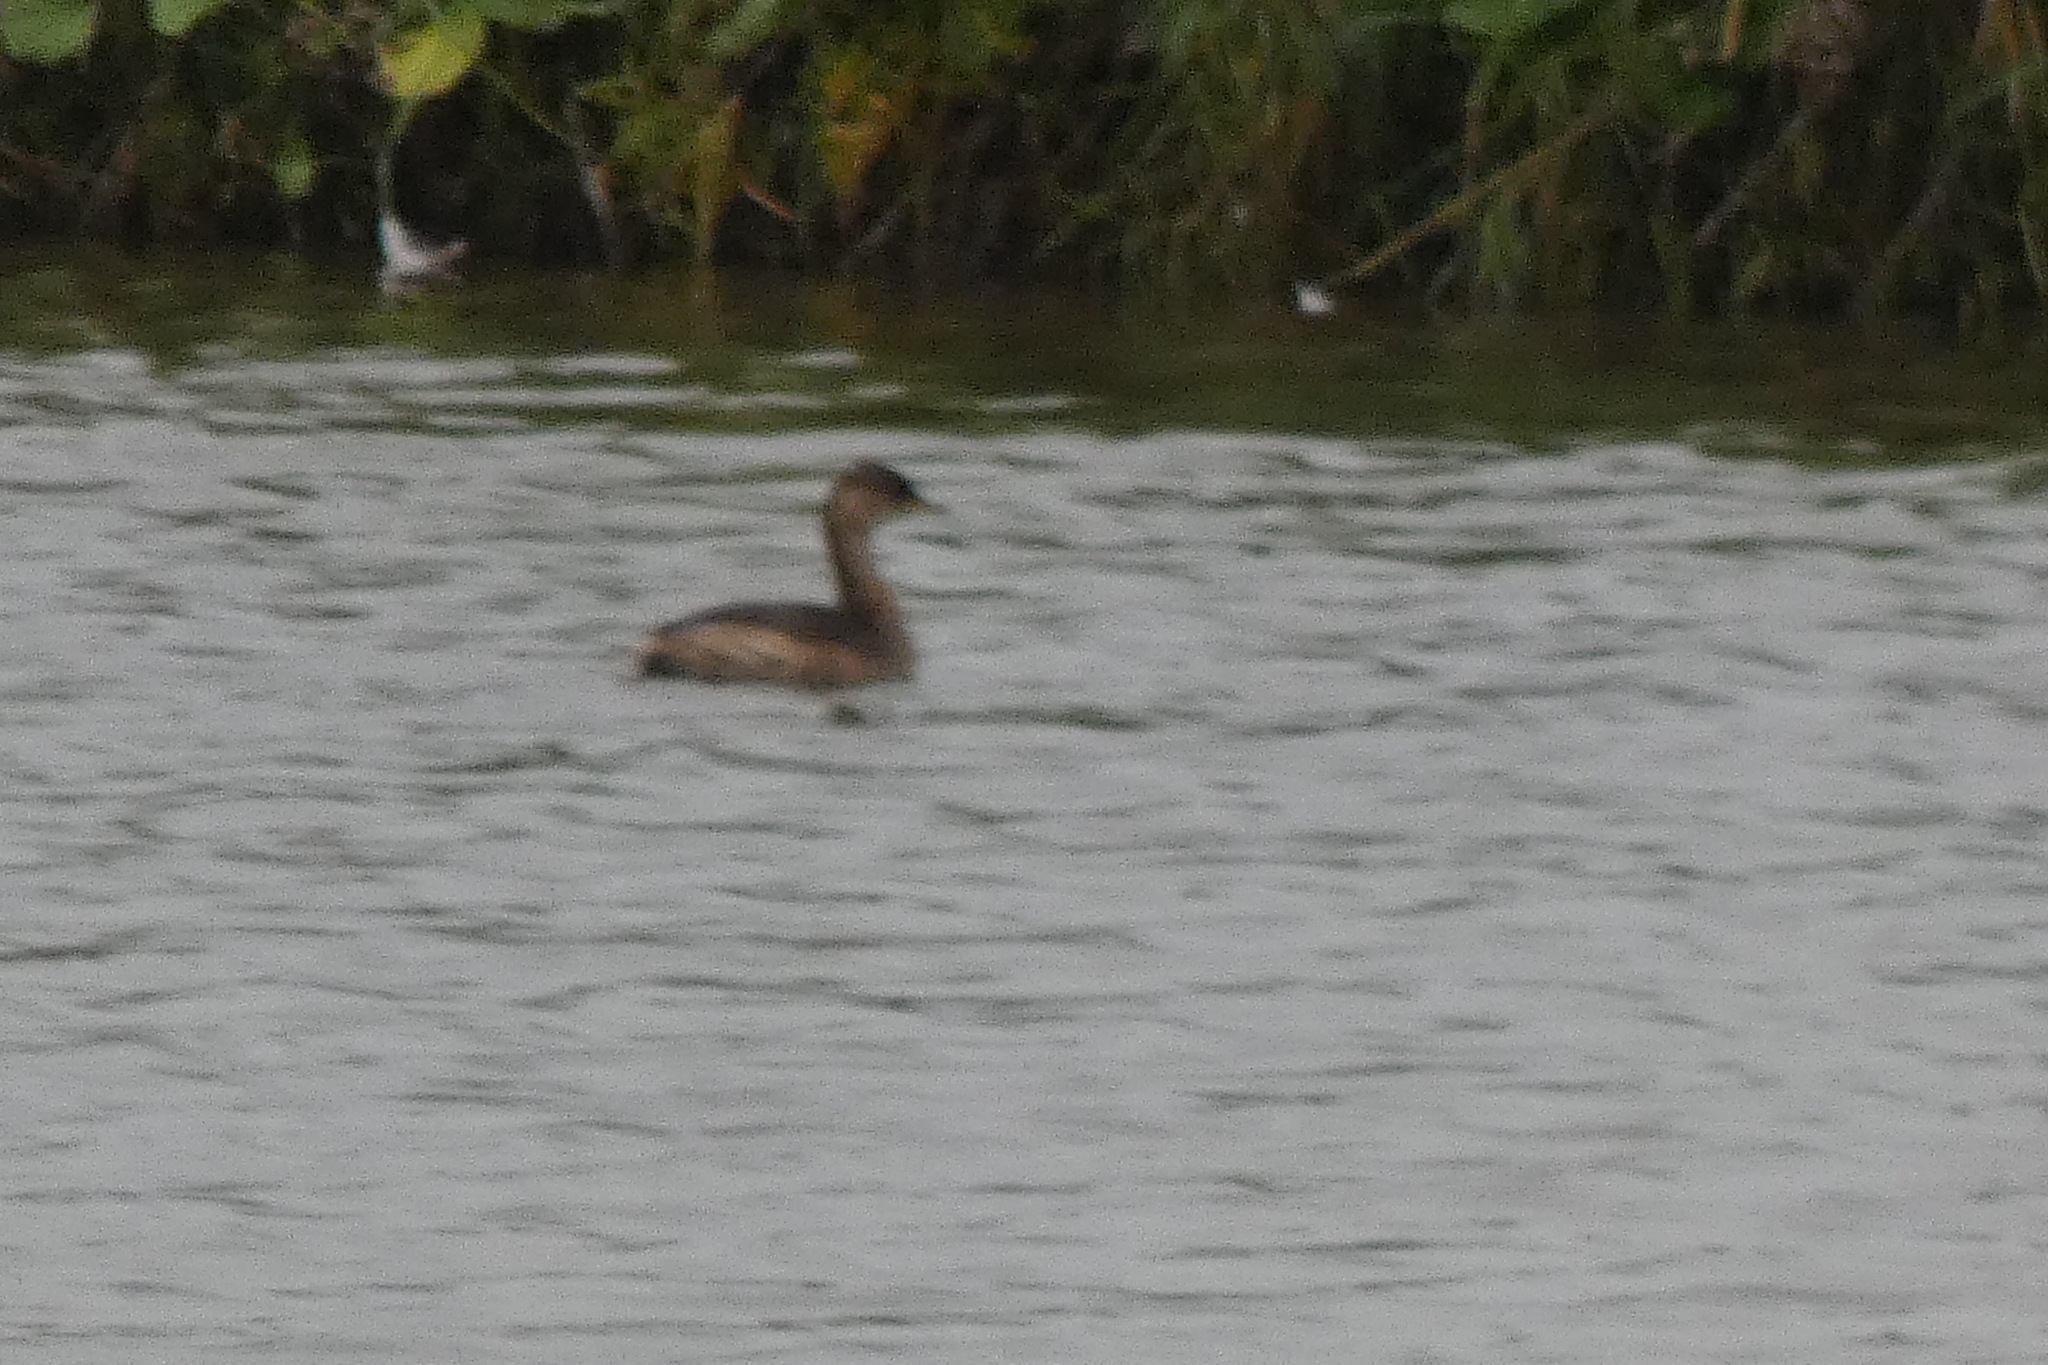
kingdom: Animalia
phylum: Chordata
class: Aves
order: Podicipediformes
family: Podicipedidae
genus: Tachybaptus
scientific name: Tachybaptus ruficollis
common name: Little grebe
